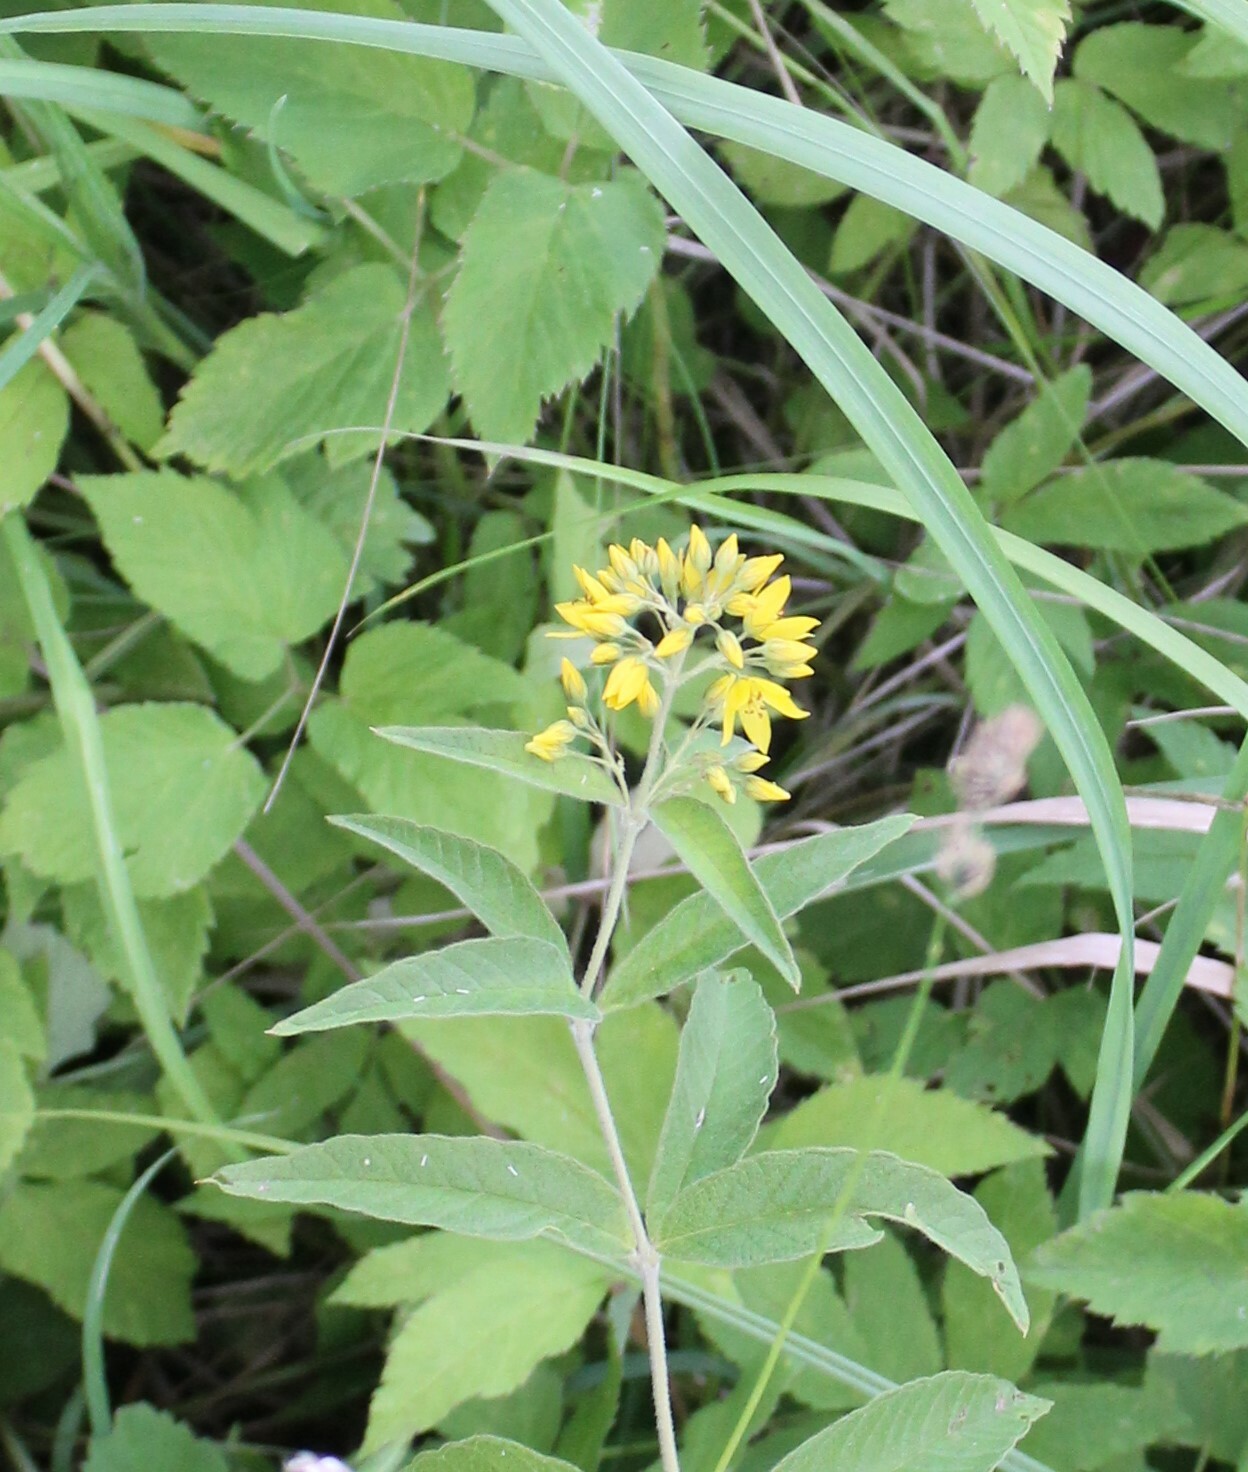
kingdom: Plantae
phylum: Tracheophyta
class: Magnoliopsida
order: Ericales
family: Primulaceae
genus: Lysimachia
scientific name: Lysimachia vulgaris
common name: Yellow loosestrife
